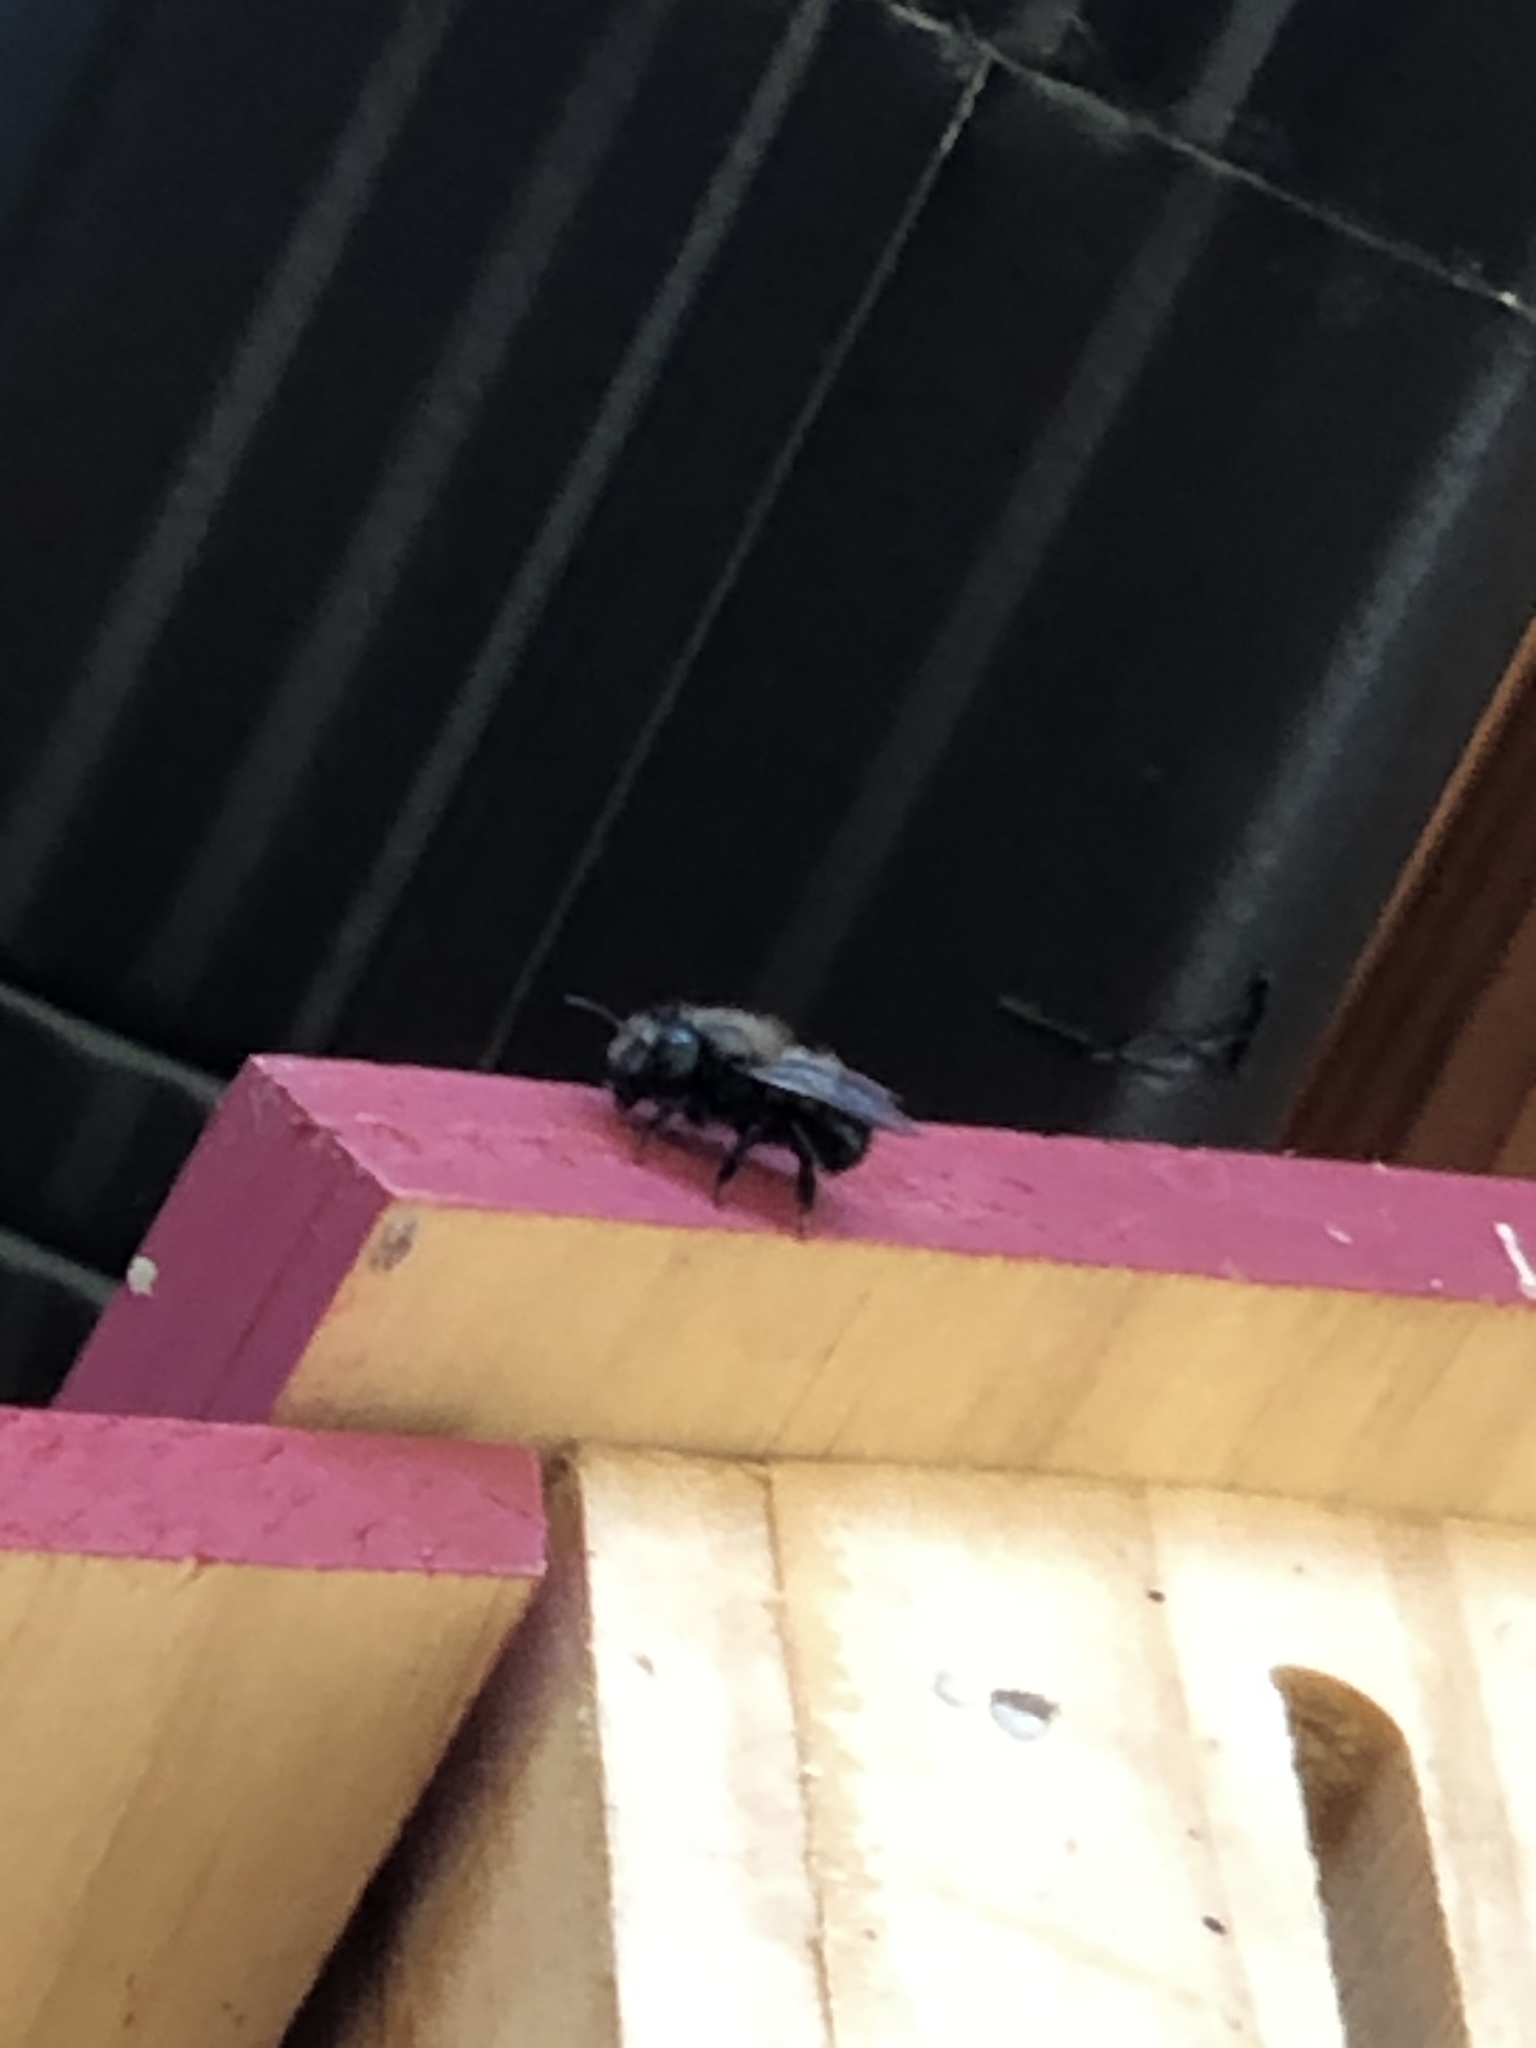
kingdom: Animalia
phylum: Arthropoda
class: Insecta
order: Hymenoptera
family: Megachilidae
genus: Osmia
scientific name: Osmia lignaria
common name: Blue orchard bee
